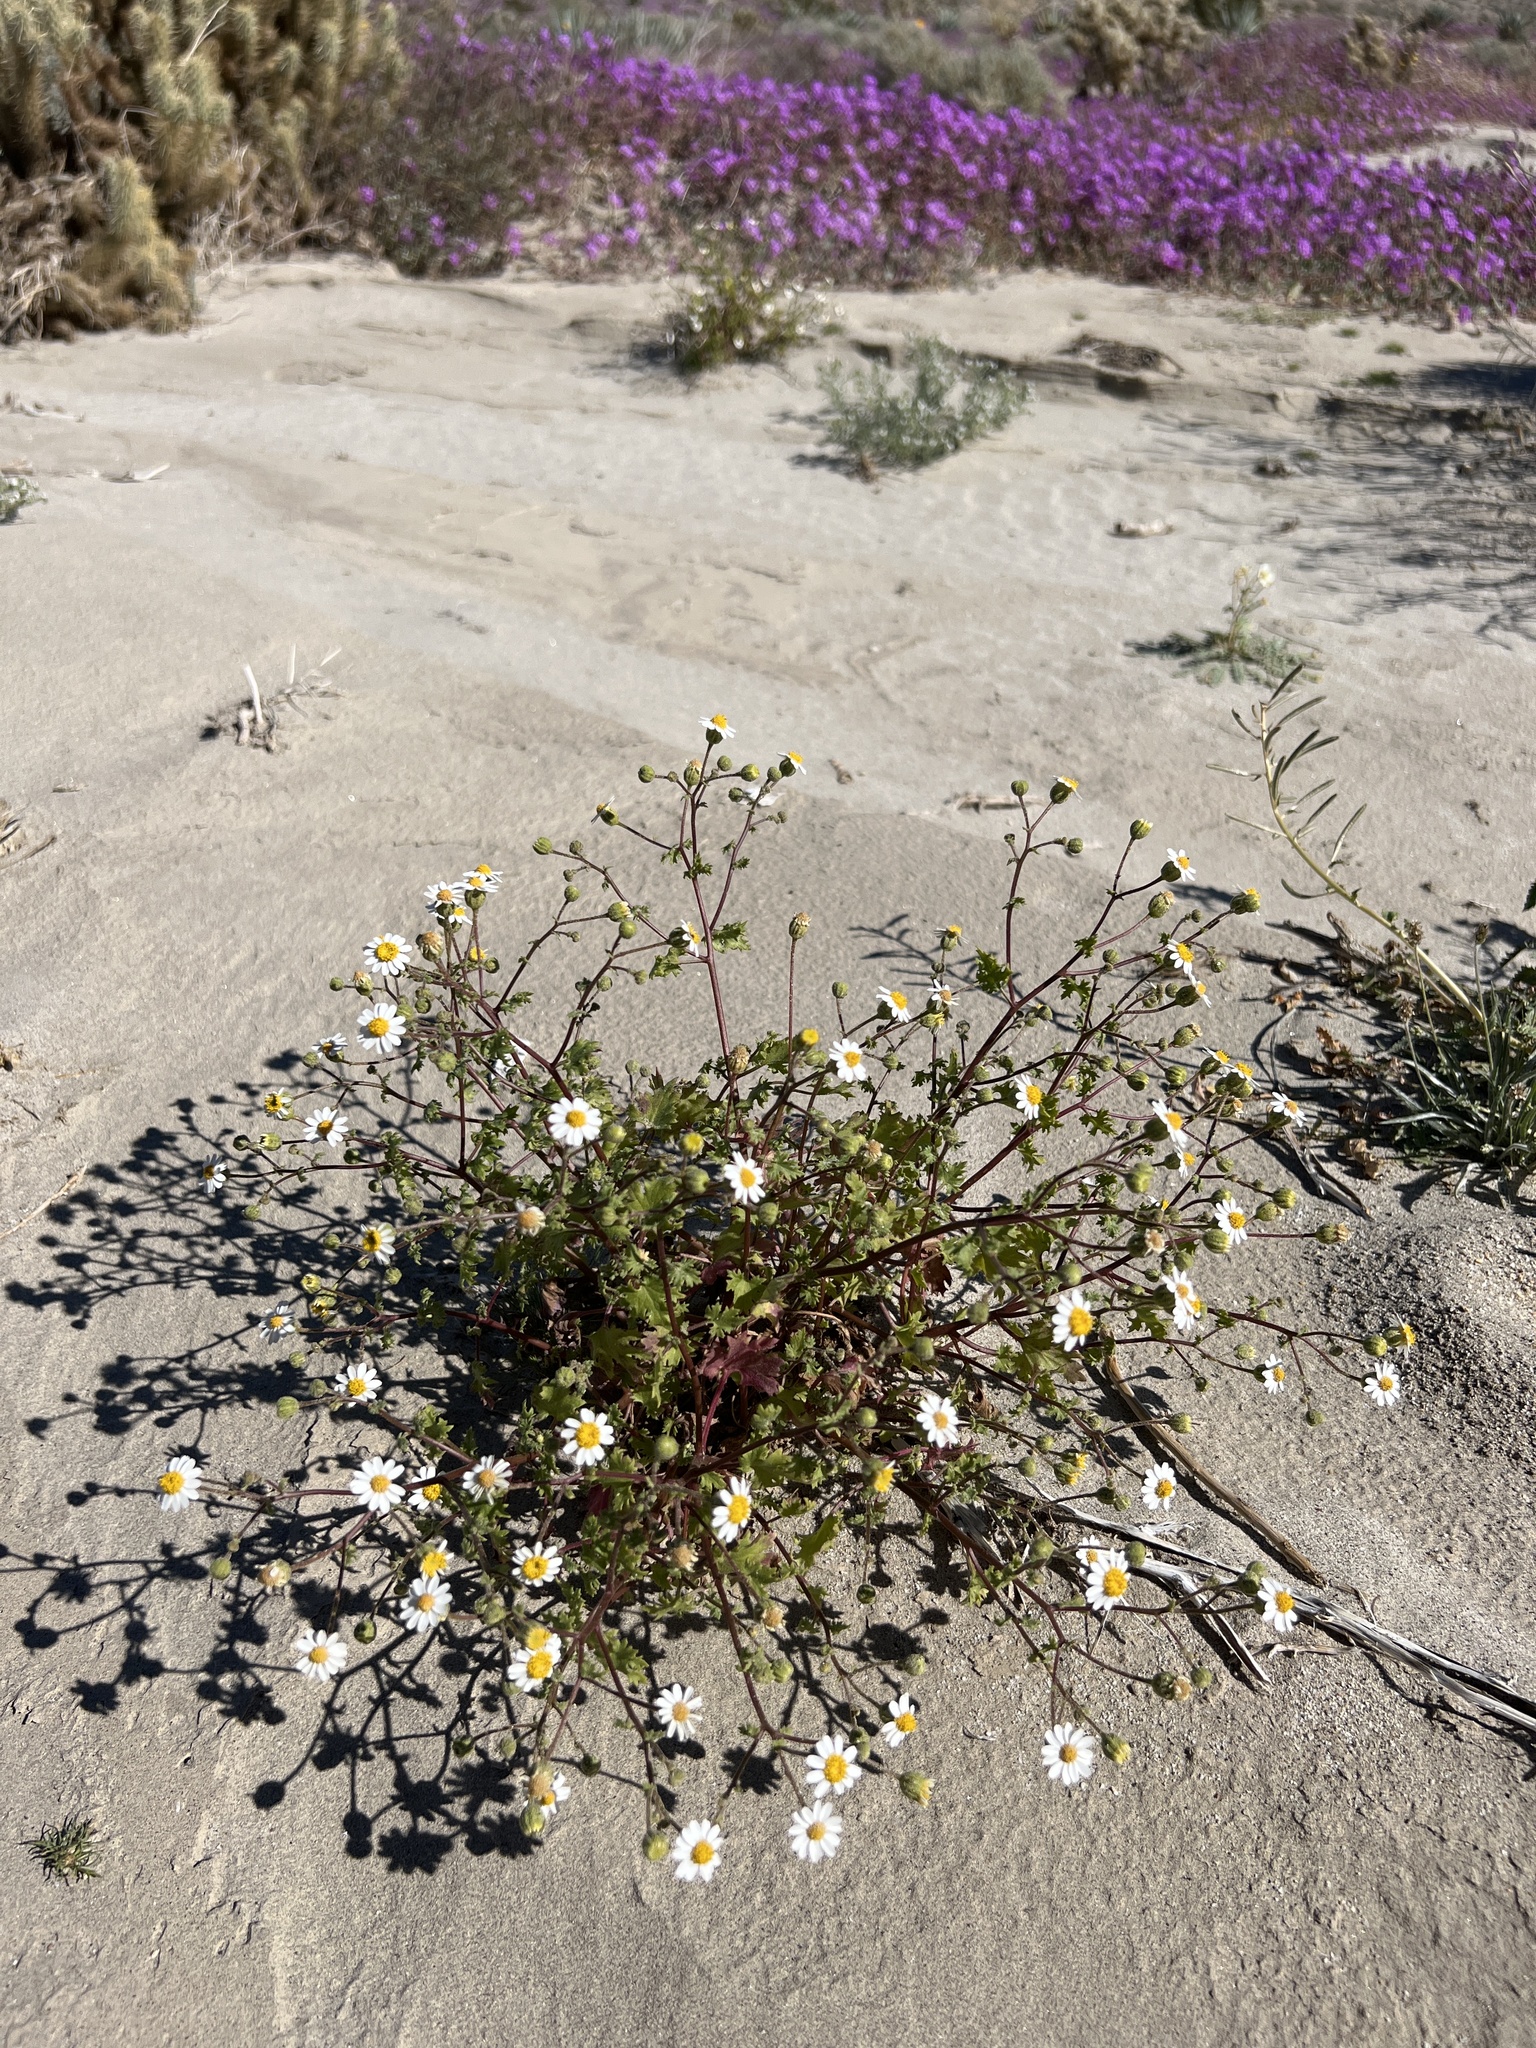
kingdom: Plantae
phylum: Tracheophyta
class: Magnoliopsida
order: Asterales
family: Asteraceae
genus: Laphamia
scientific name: Laphamia emoryi
